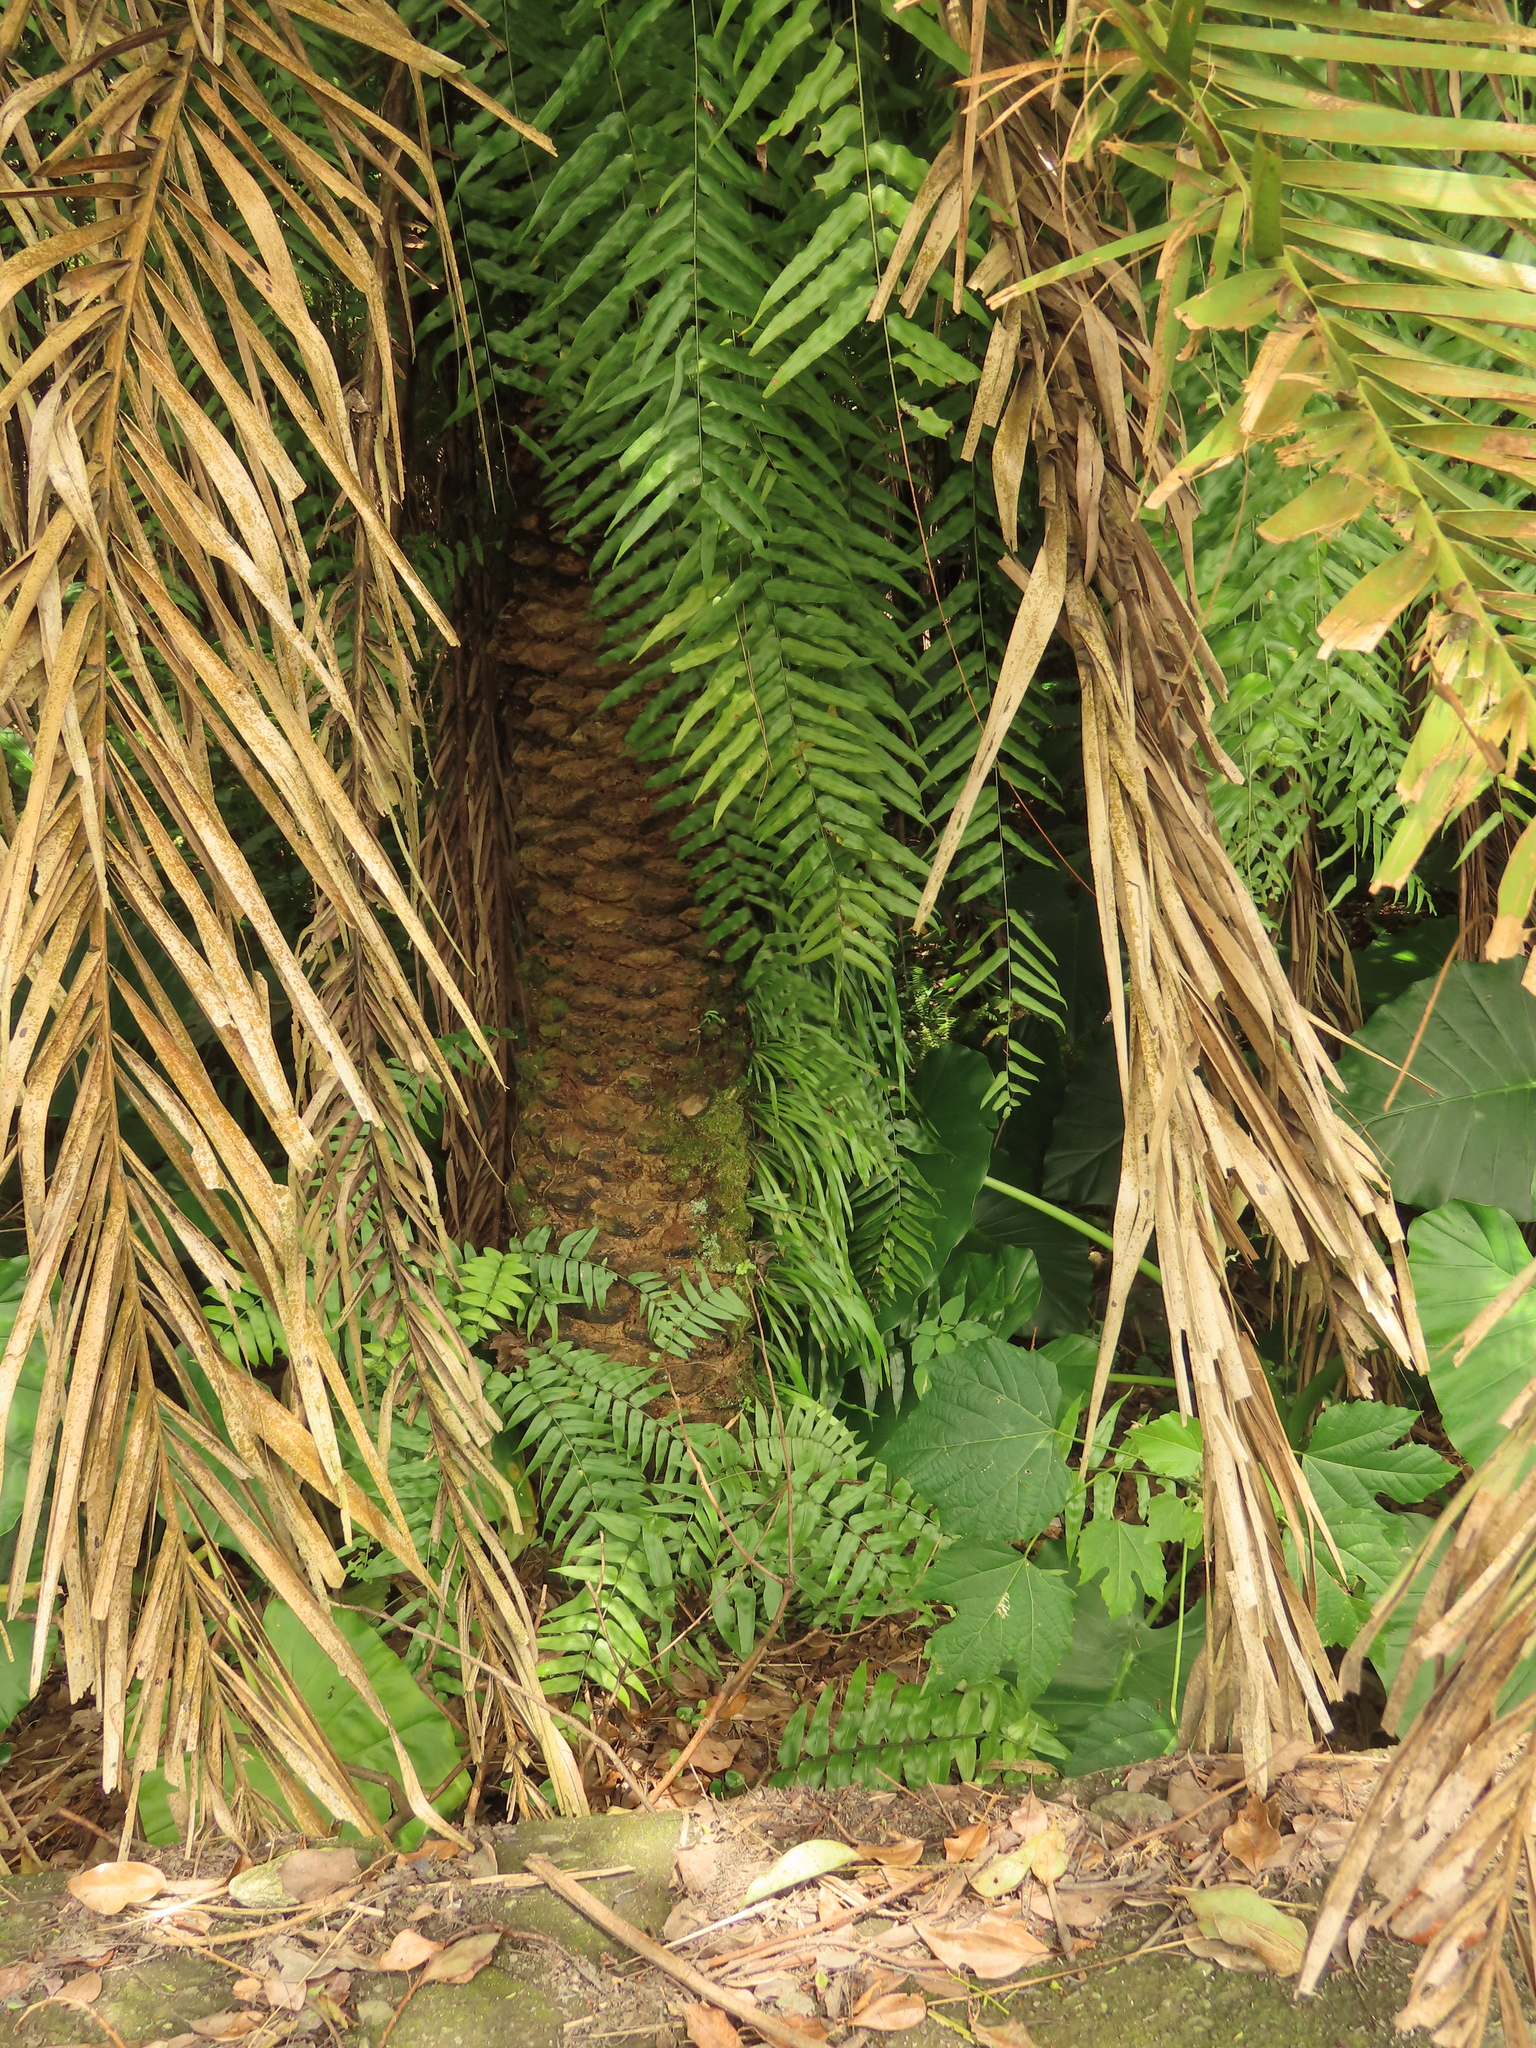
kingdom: Plantae
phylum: Tracheophyta
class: Polypodiopsida
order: Polypodiales
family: Pteridaceae
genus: Haplopteris
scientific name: Haplopteris elongata
